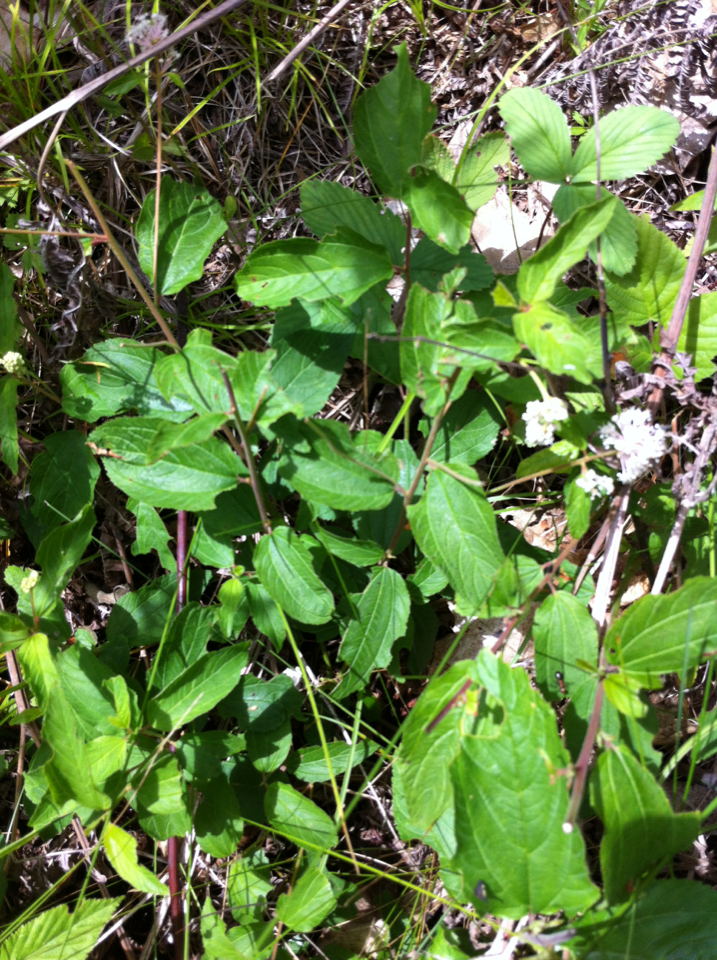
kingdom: Plantae
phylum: Tracheophyta
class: Magnoliopsida
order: Rosales
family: Rhamnaceae
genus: Ceanothus
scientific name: Ceanothus americanus
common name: Redroot
